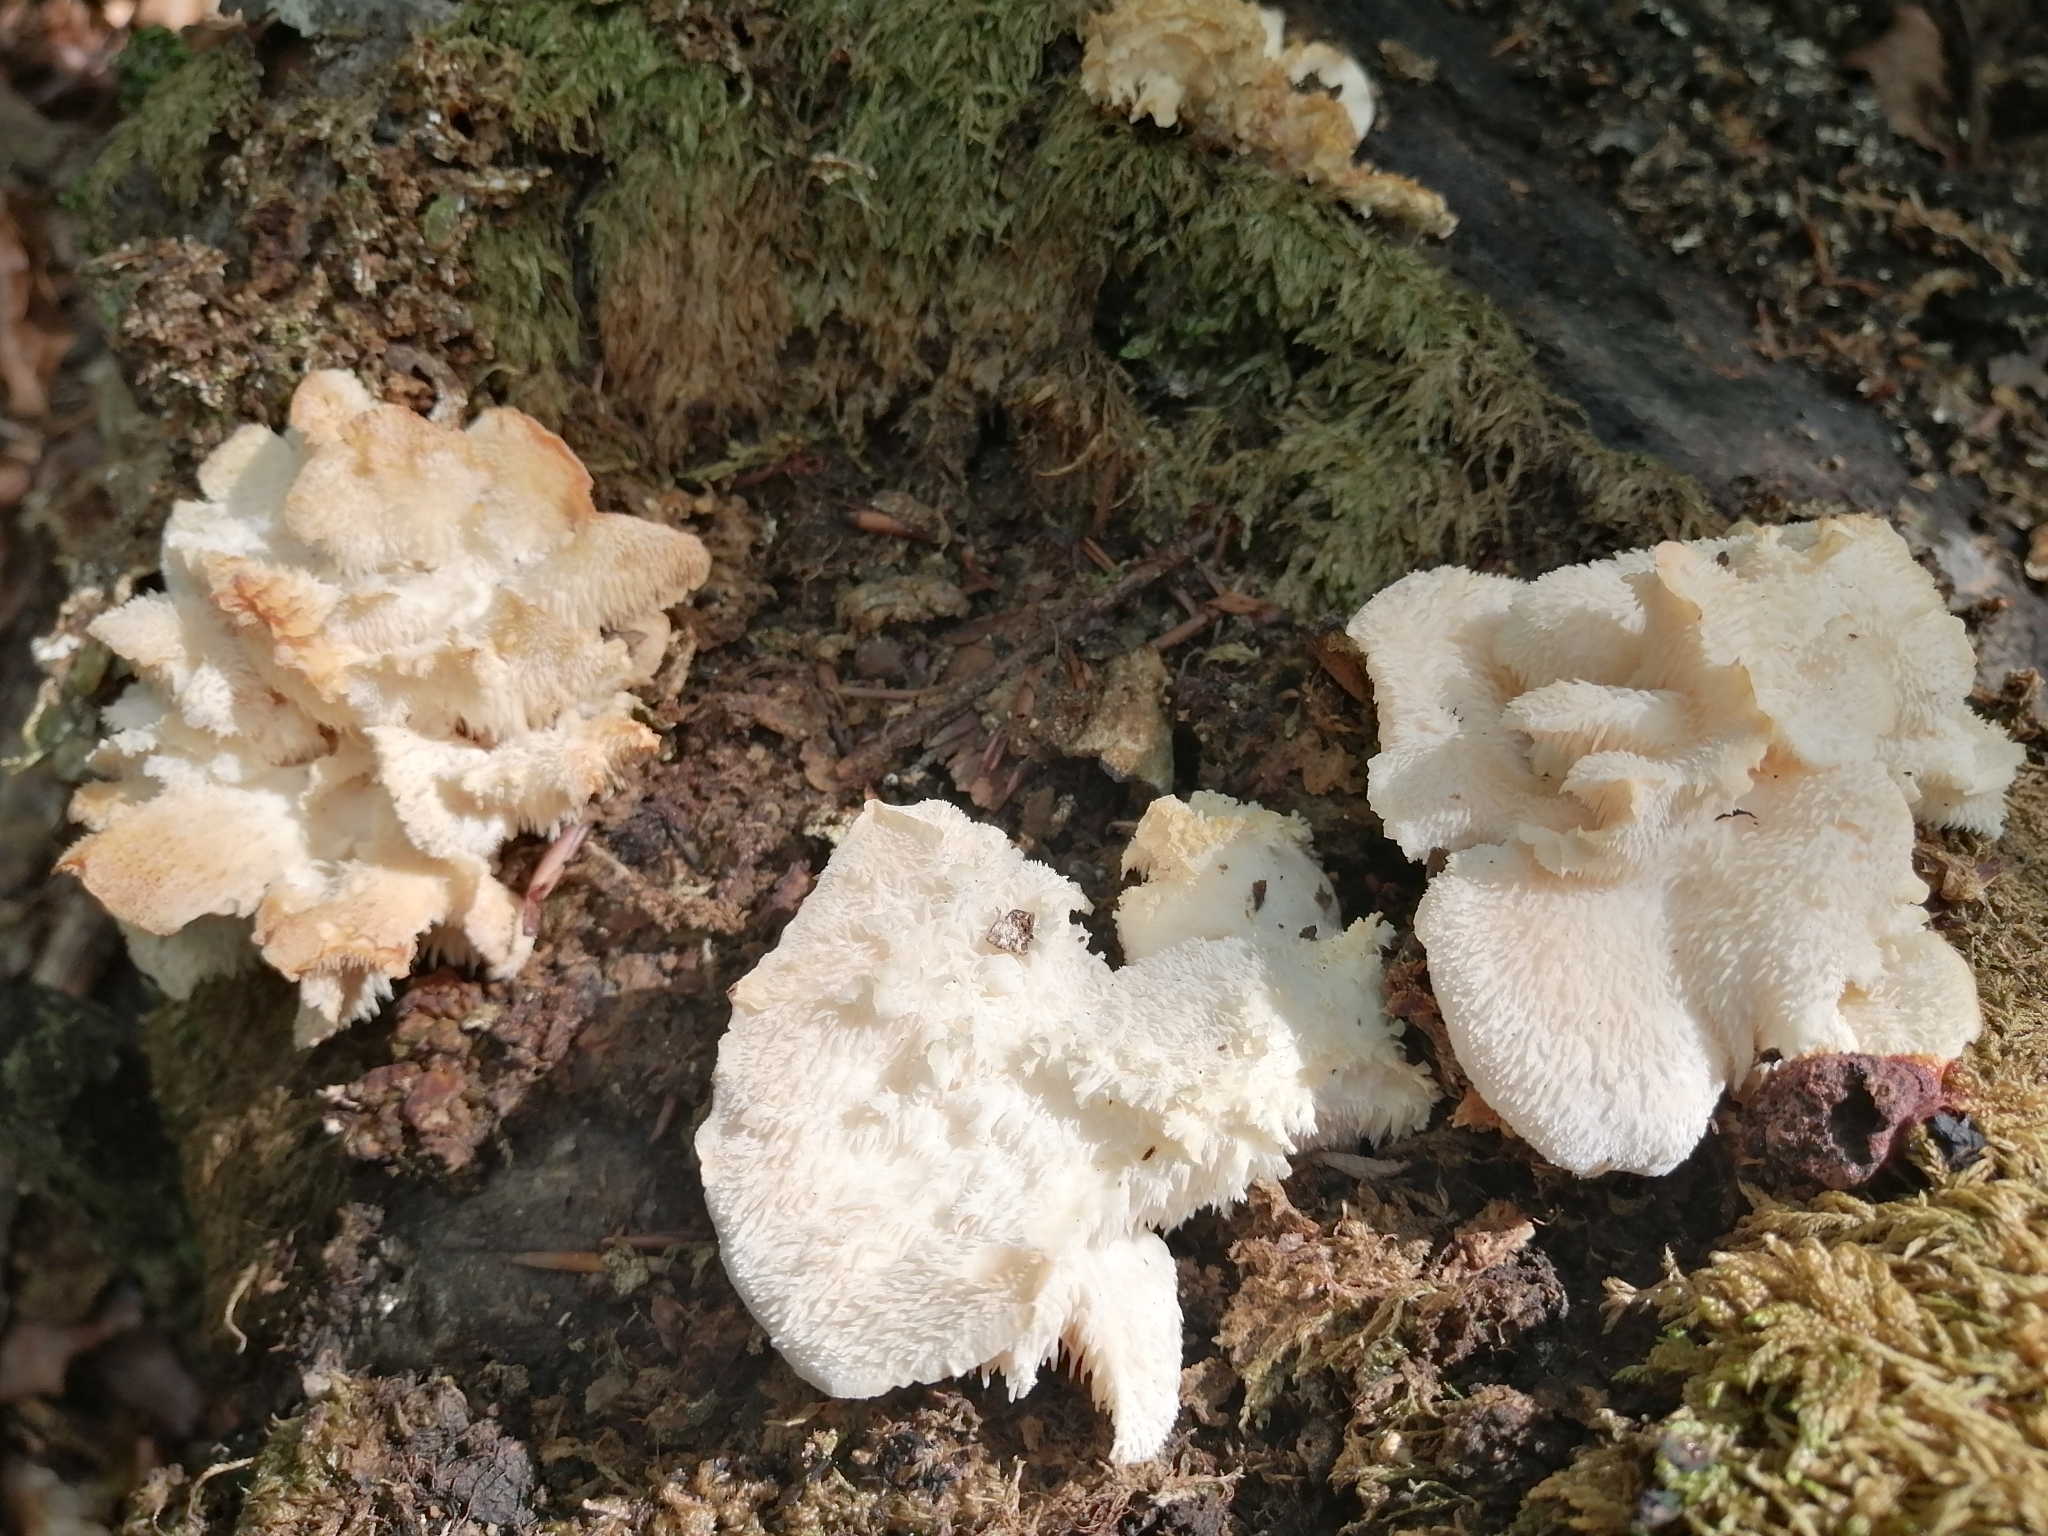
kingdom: Fungi
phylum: Basidiomycota
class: Agaricomycetes
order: Russulales
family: Hericiaceae
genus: Hericium
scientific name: Hericium cirrhatum
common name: Tiered tooth
